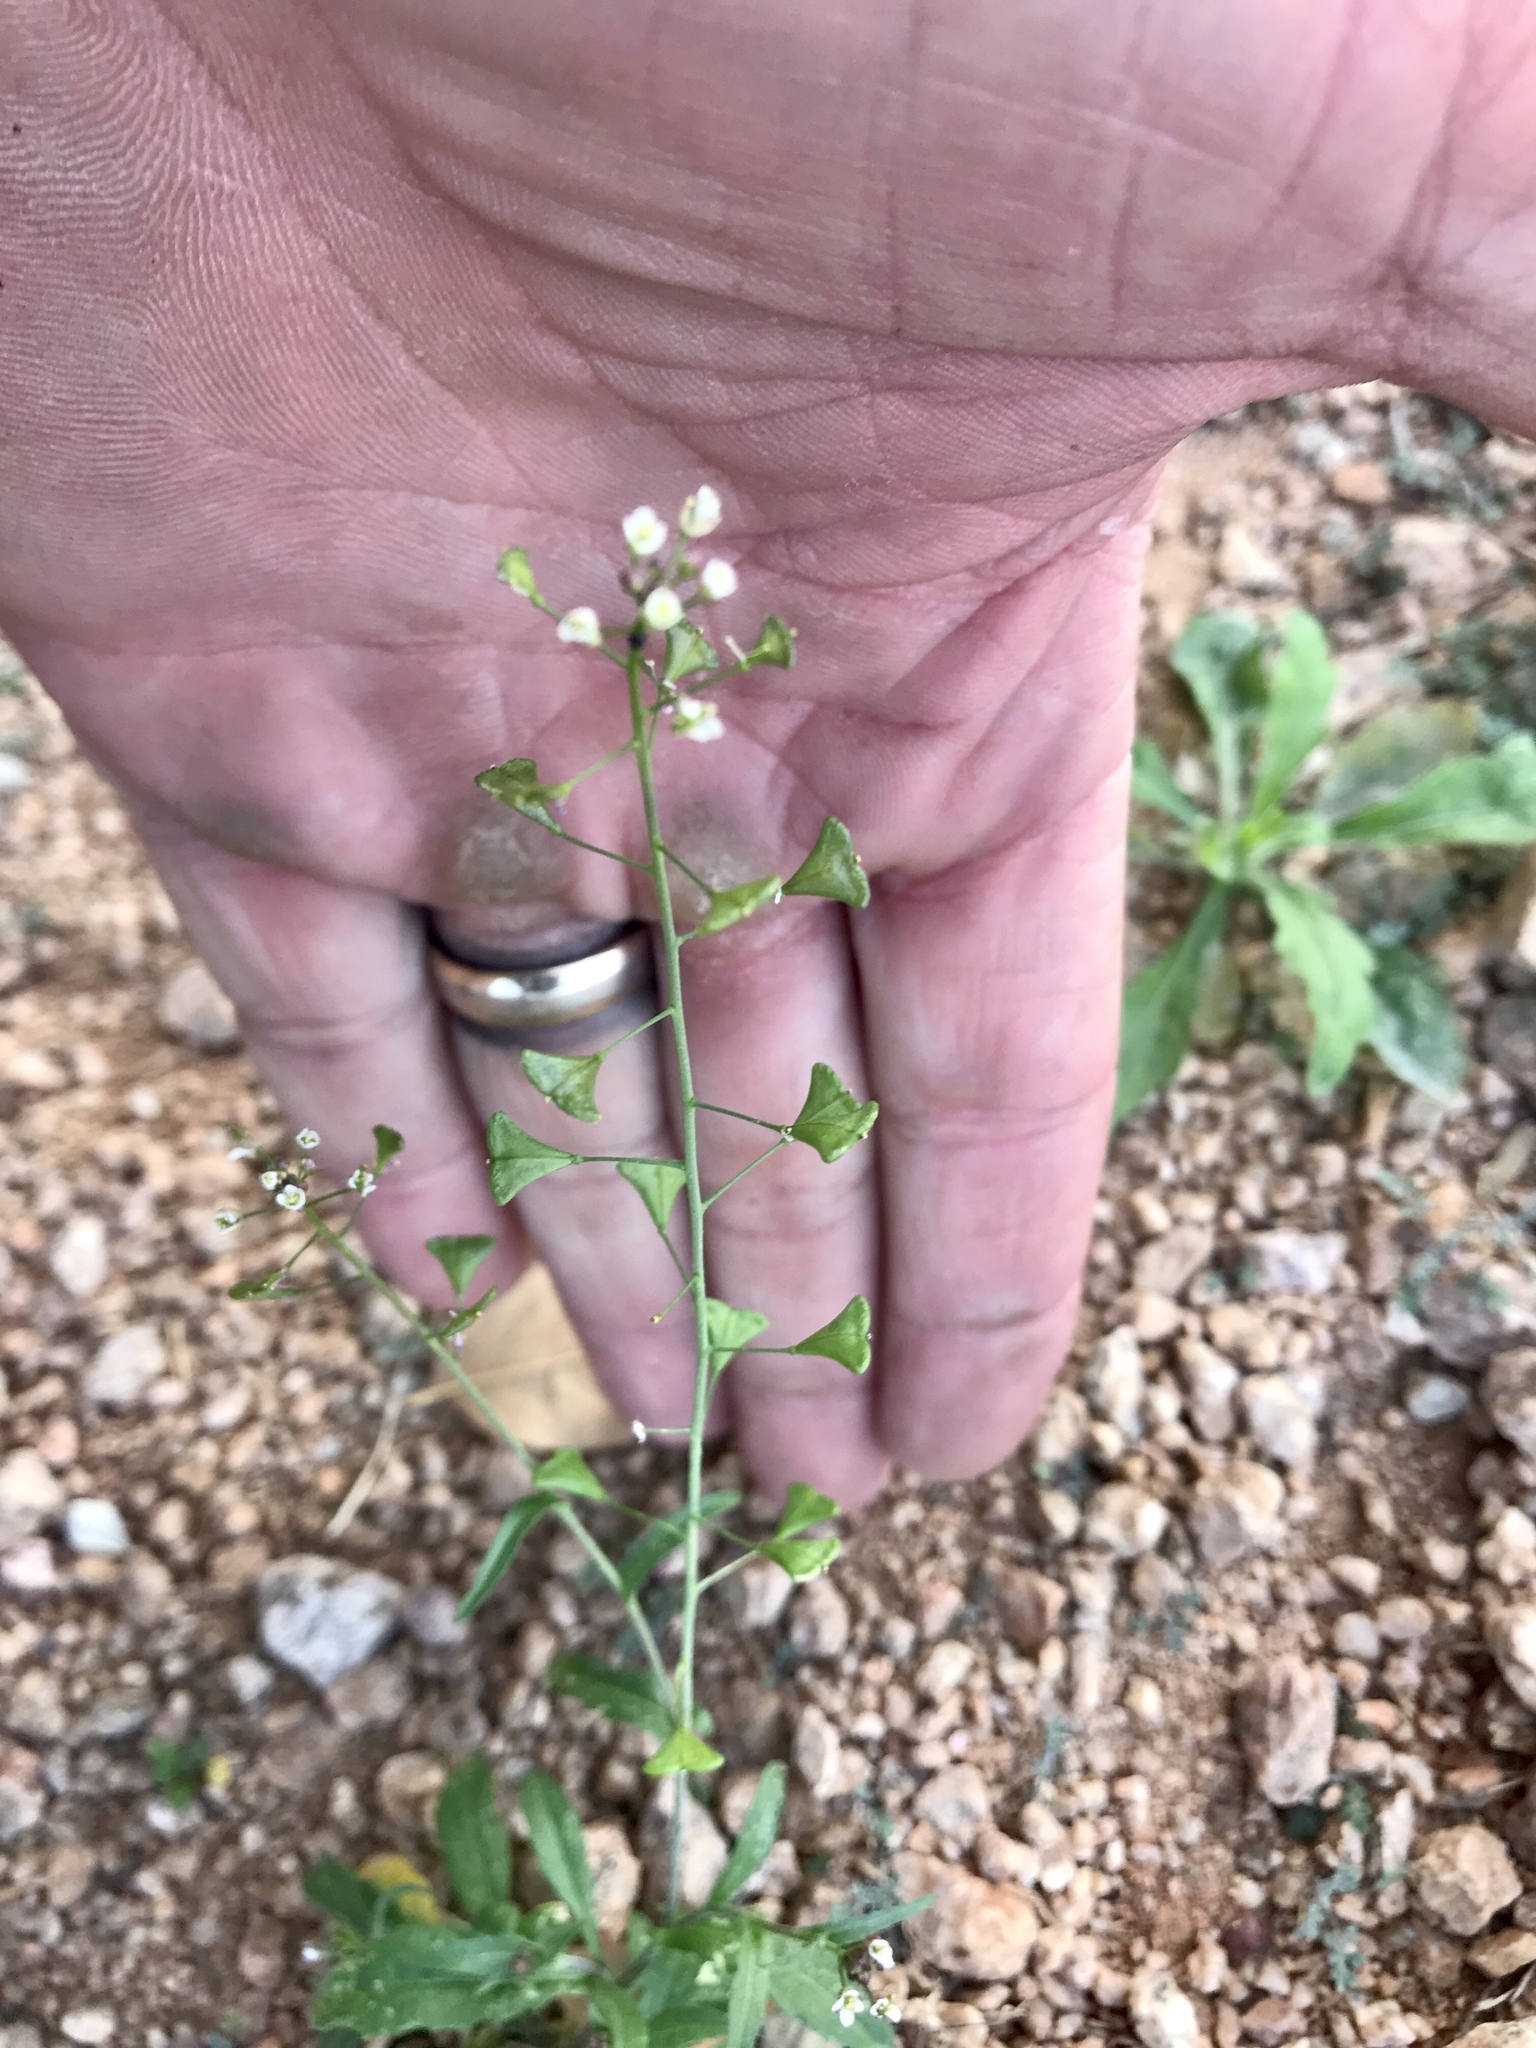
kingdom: Plantae
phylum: Tracheophyta
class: Magnoliopsida
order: Brassicales
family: Brassicaceae
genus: Capsella
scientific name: Capsella bursa-pastoris
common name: Shepherd's purse
